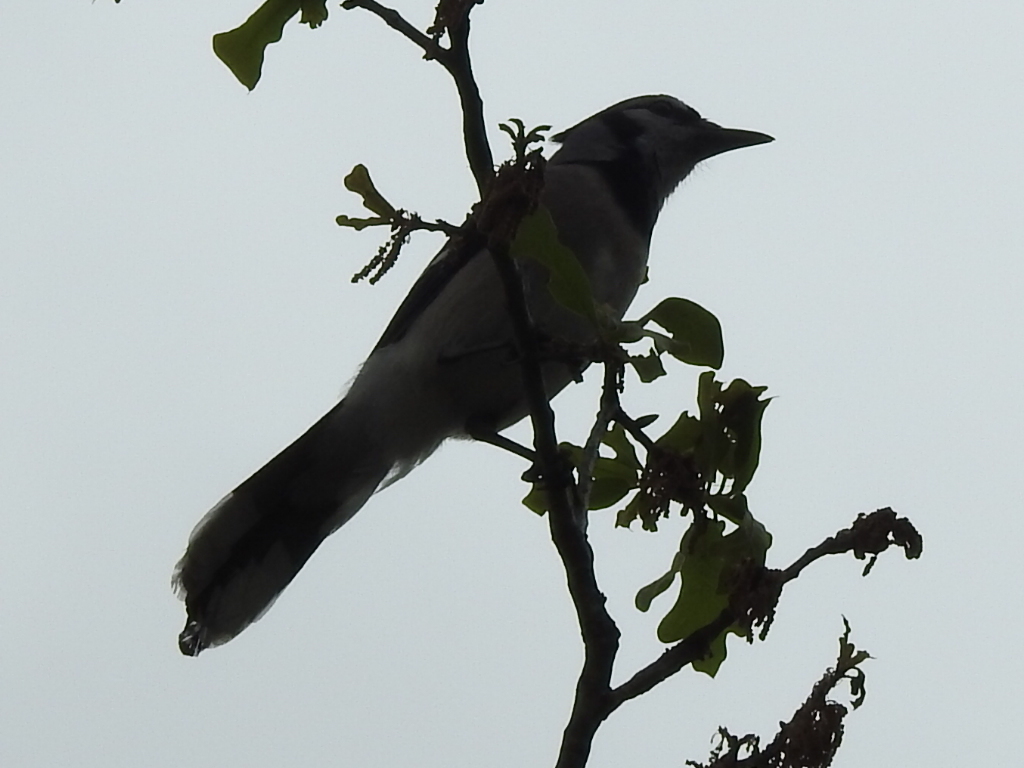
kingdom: Animalia
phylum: Chordata
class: Aves
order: Passeriformes
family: Corvidae
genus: Cyanocitta
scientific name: Cyanocitta cristata
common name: Blue jay
